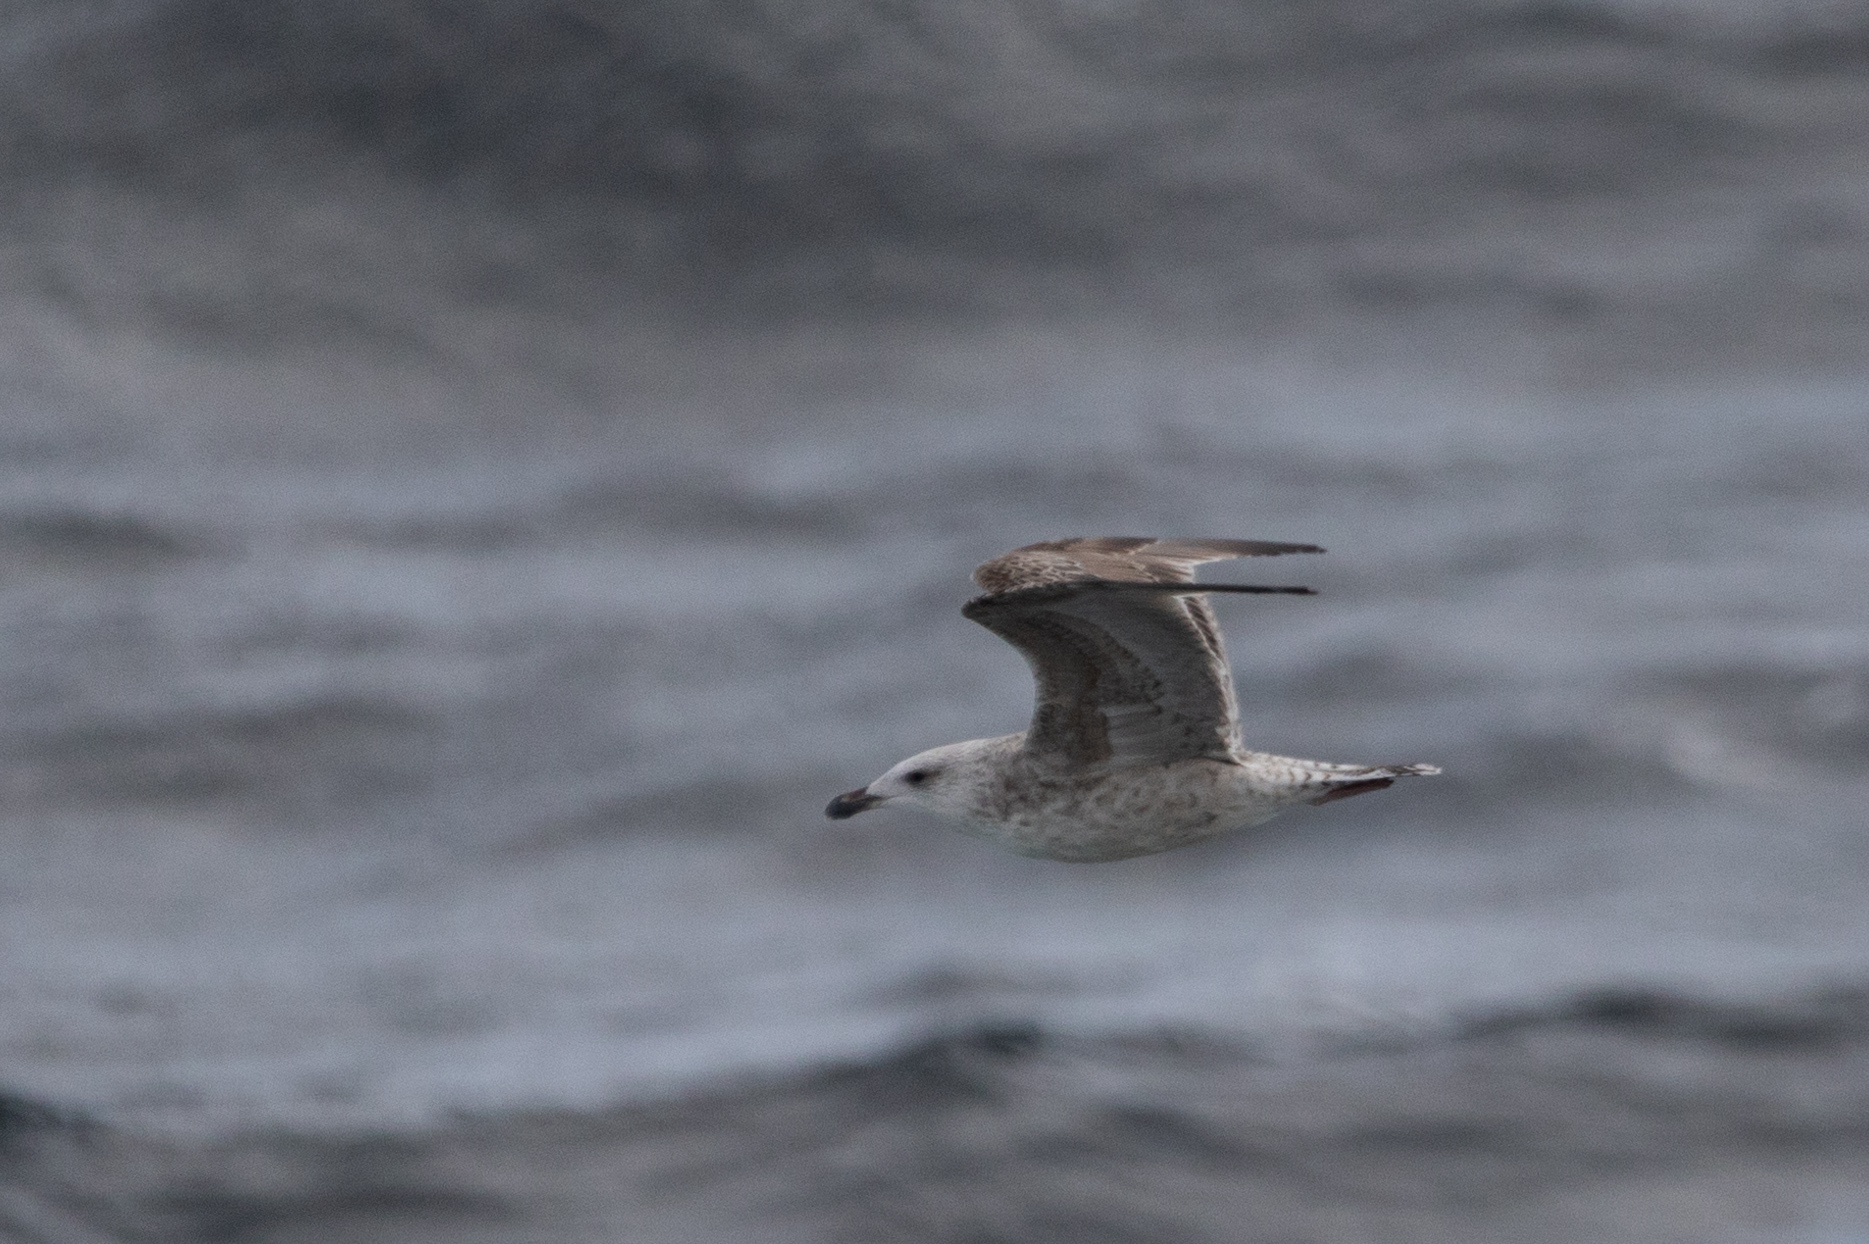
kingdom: Animalia
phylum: Chordata
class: Aves
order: Charadriiformes
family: Laridae
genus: Larus
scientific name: Larus marinus
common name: Great black-backed gull
